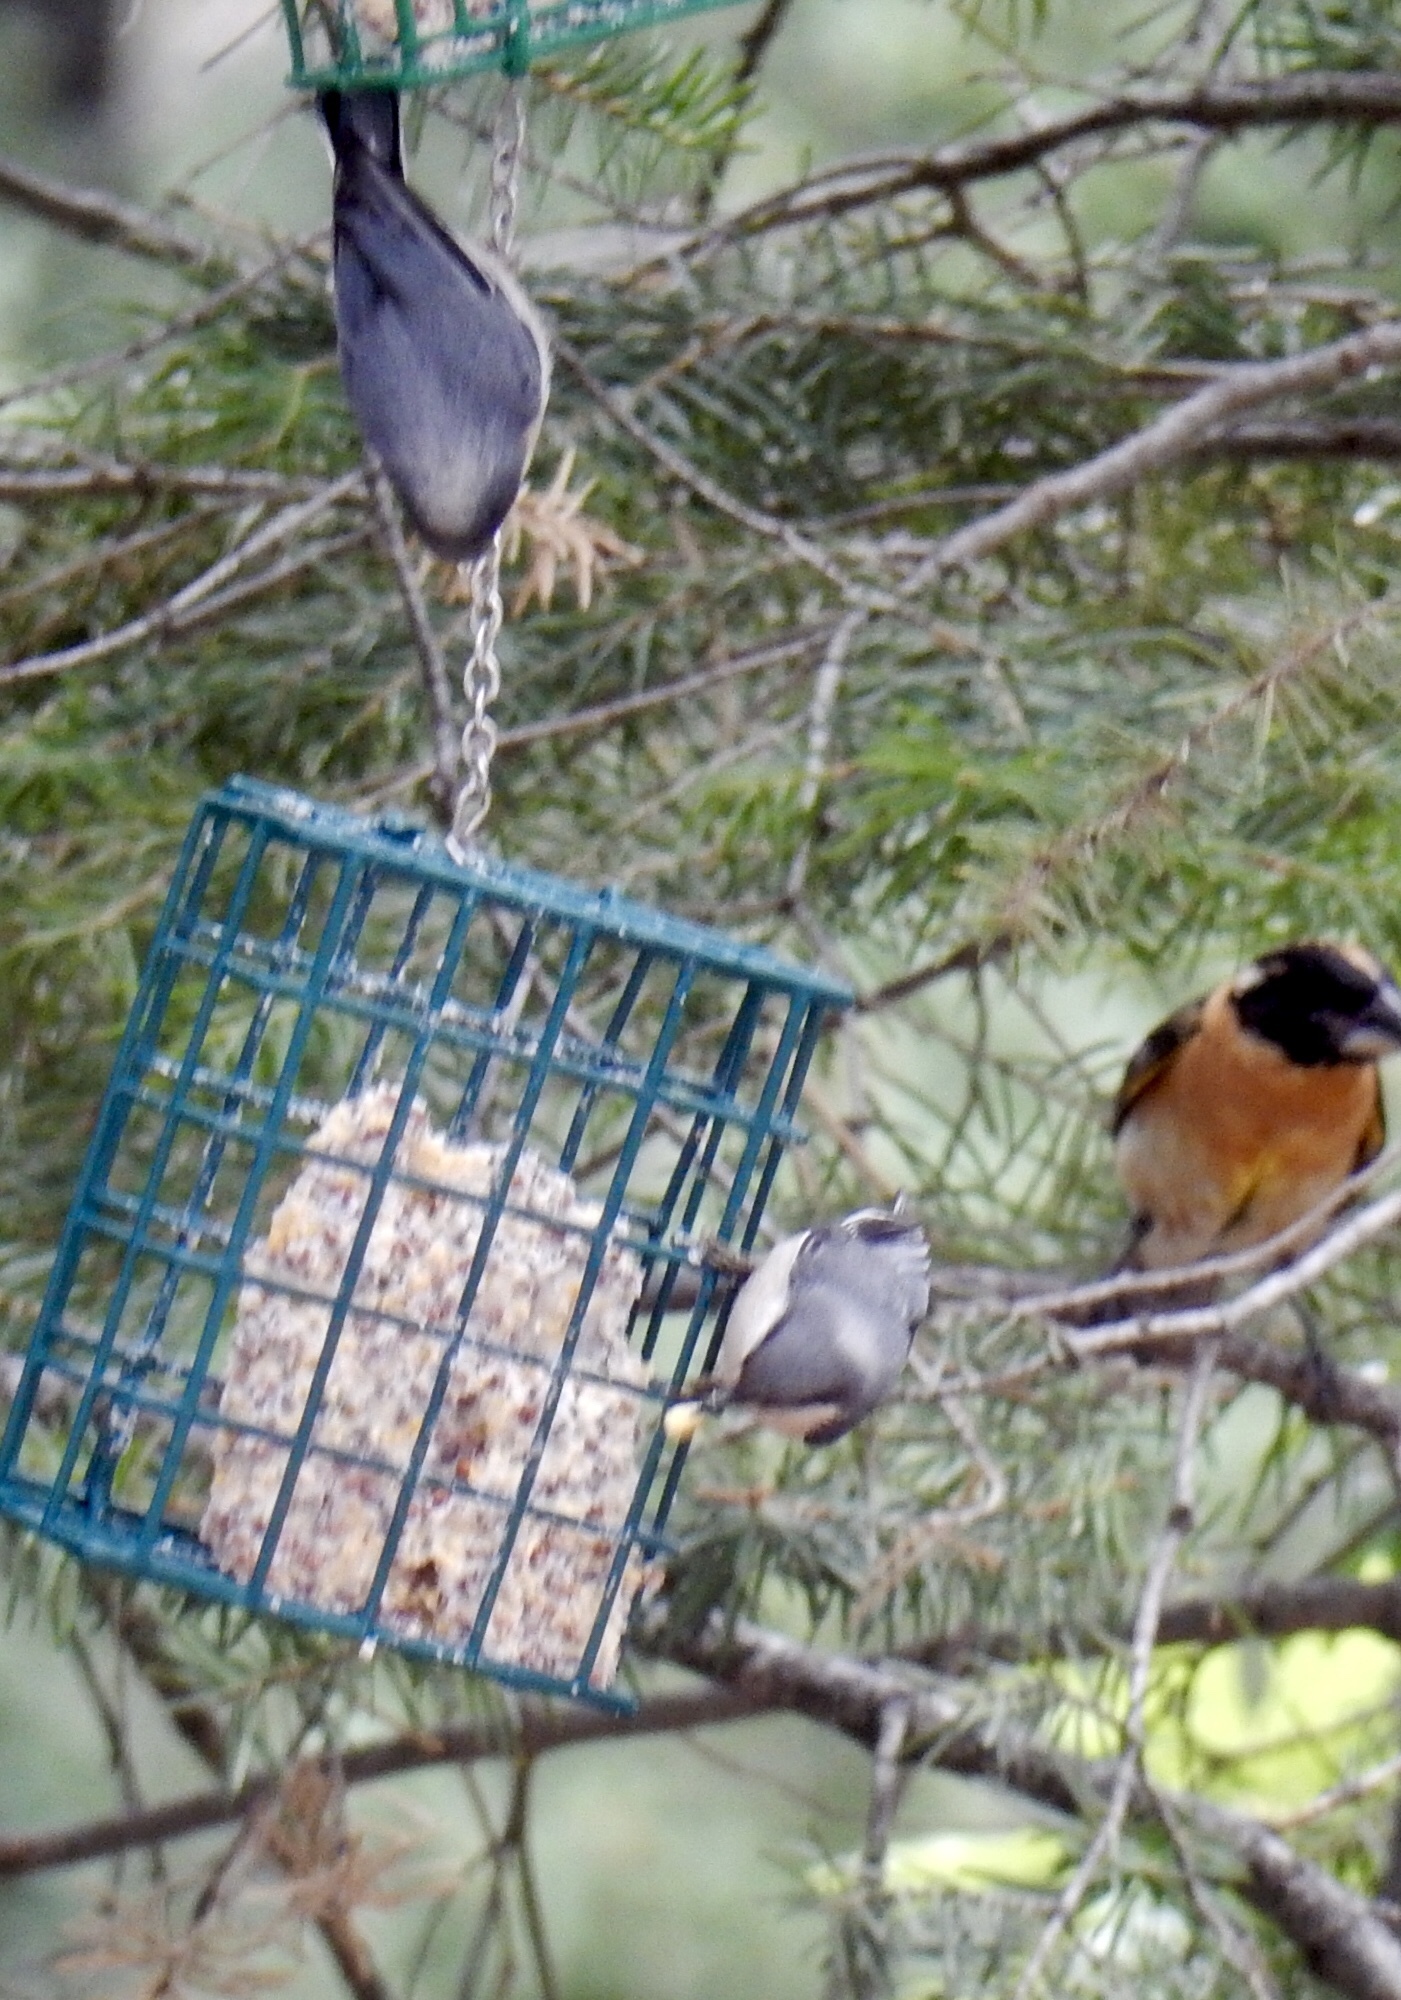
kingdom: Animalia
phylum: Chordata
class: Aves
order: Passeriformes
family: Sittidae
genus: Sitta
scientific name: Sitta pygmaea
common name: Pygmy nuthatch
